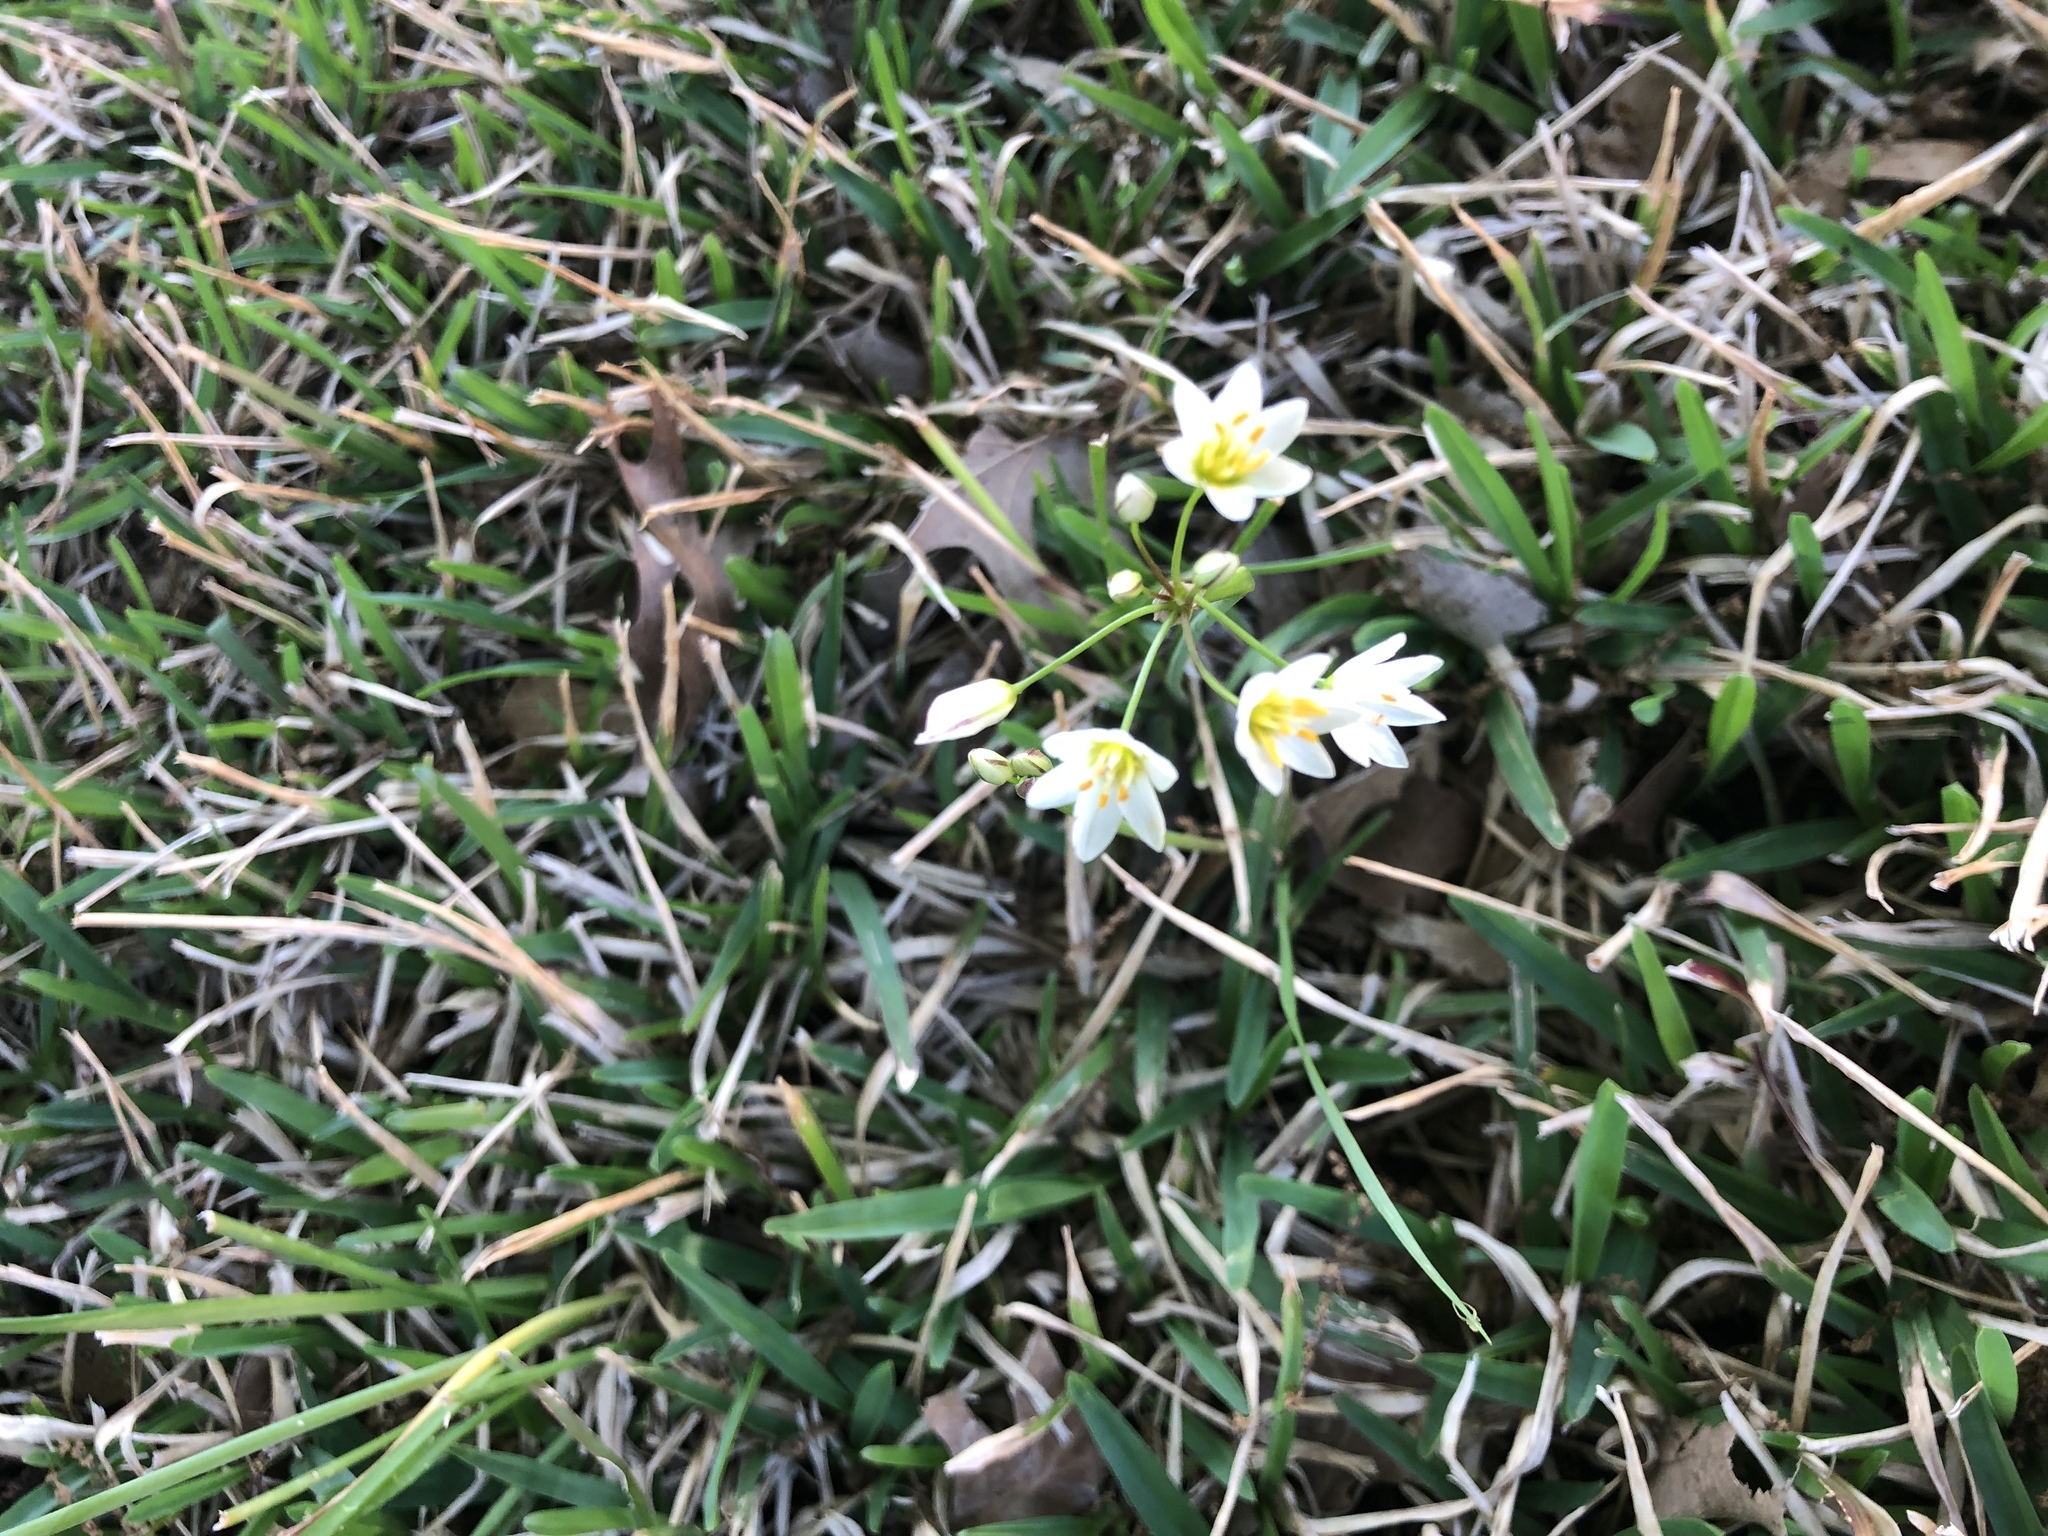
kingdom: Plantae
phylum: Tracheophyta
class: Liliopsida
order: Asparagales
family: Amaryllidaceae
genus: Nothoscordum
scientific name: Nothoscordum bivalve
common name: Crow-poison
